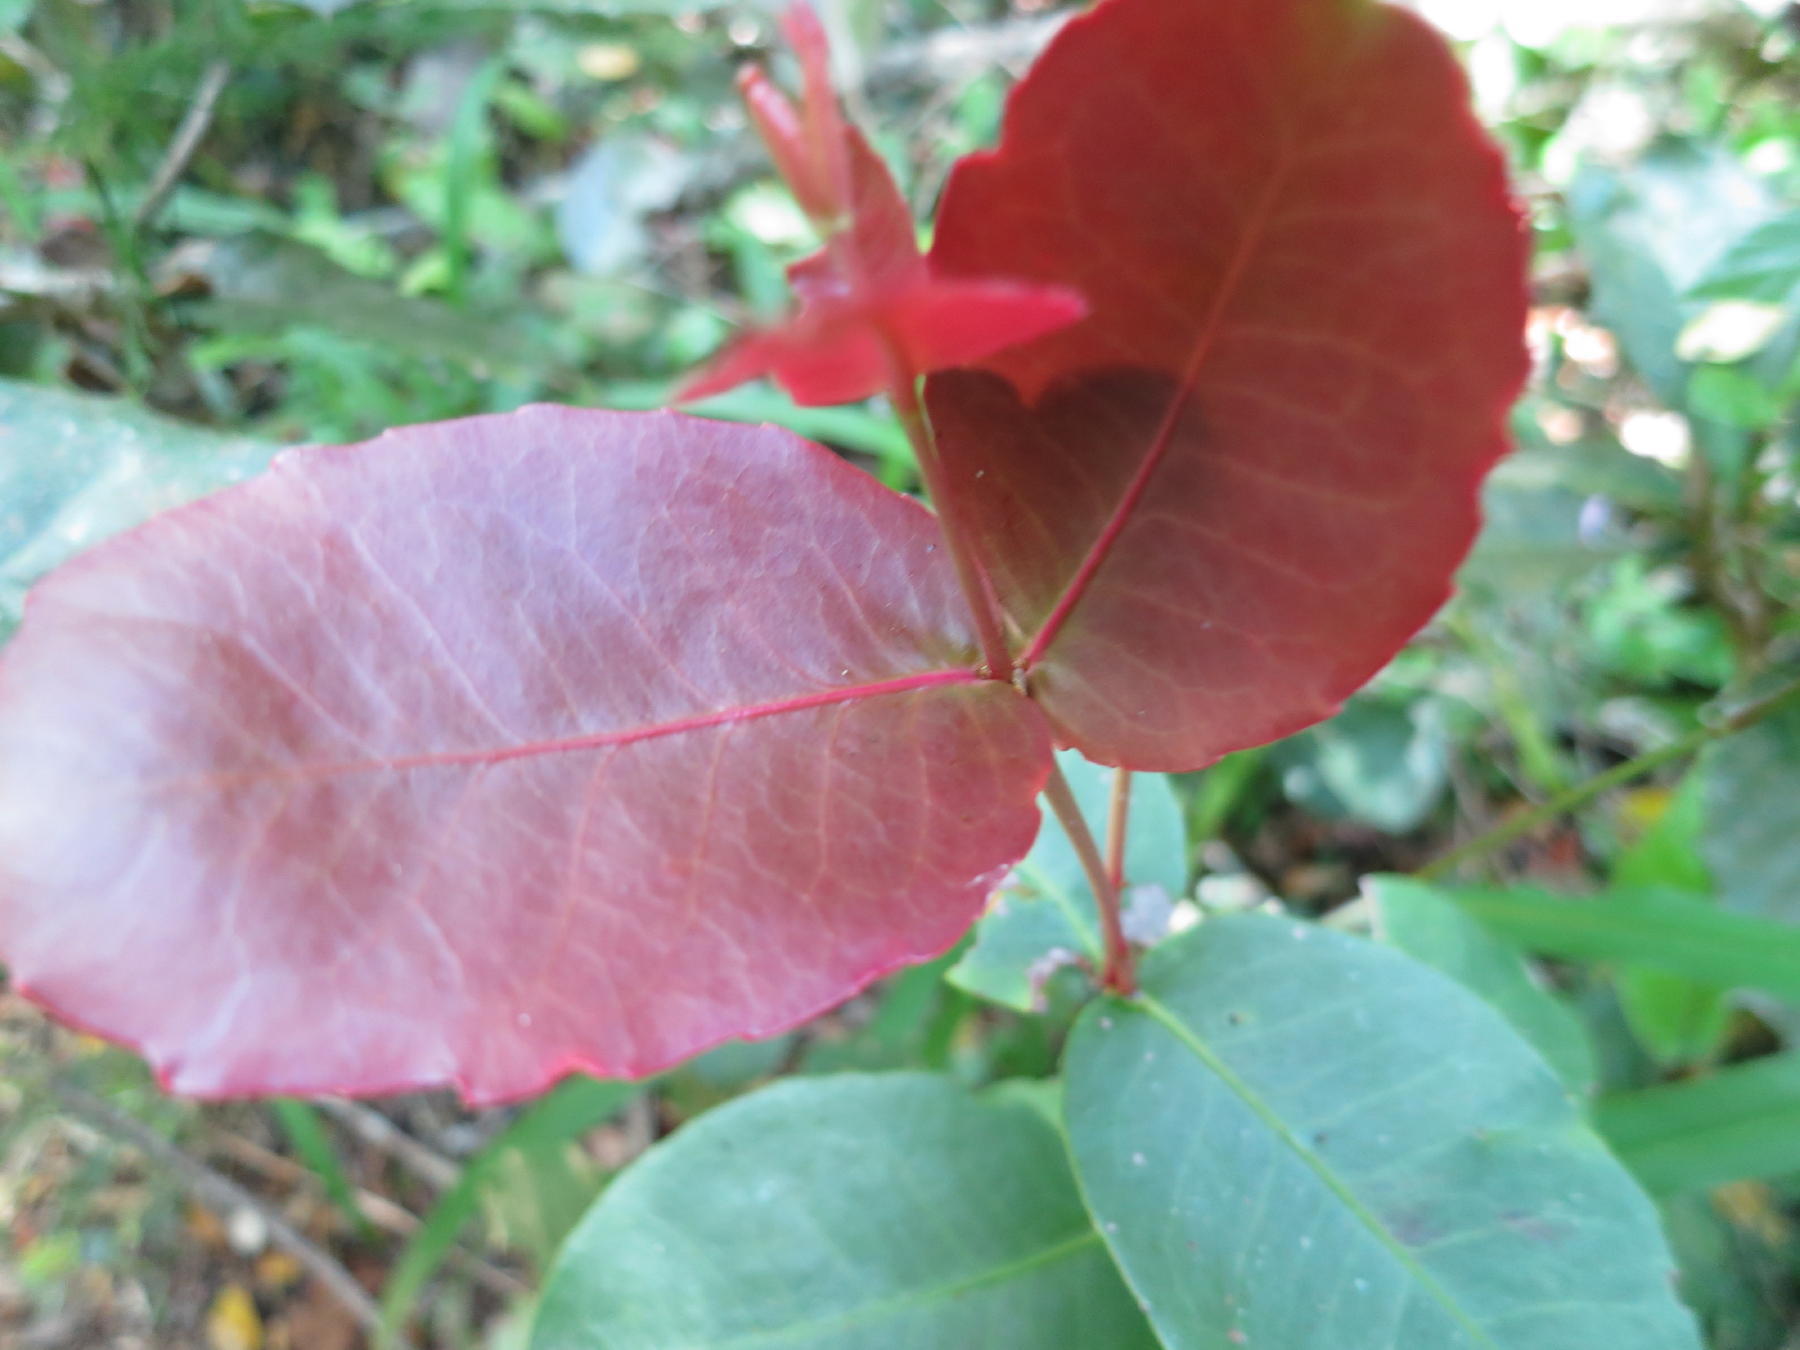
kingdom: Plantae
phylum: Tracheophyta
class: Magnoliopsida
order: Celastrales
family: Celastraceae
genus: Lauridia
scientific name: Lauridia tetragona
